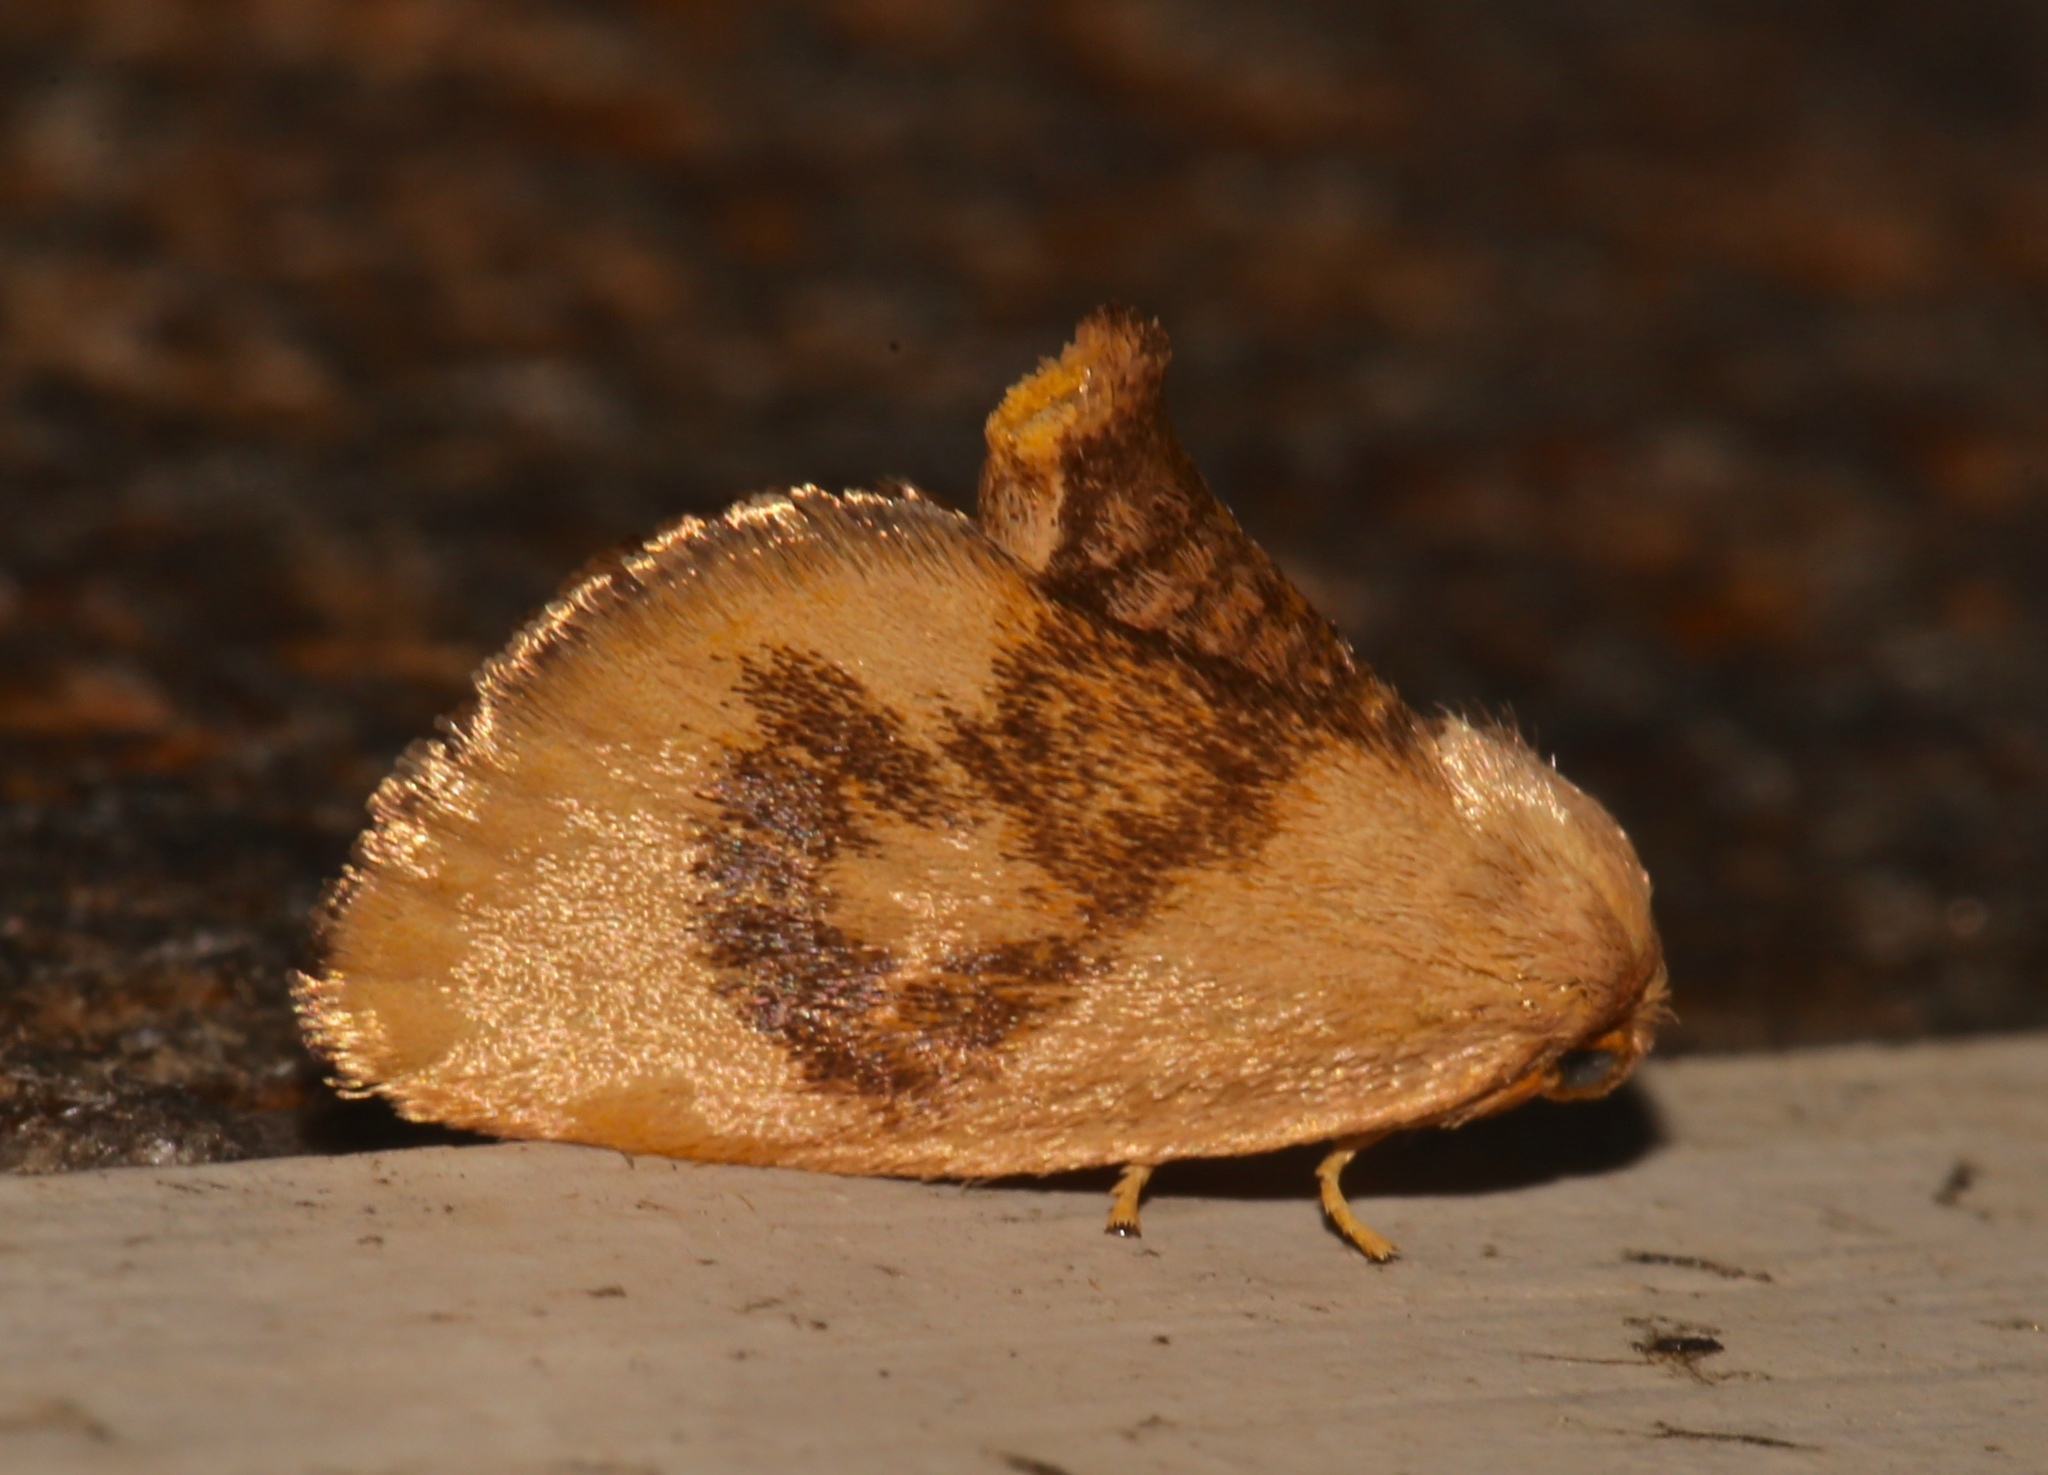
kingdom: Animalia
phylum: Arthropoda
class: Insecta
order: Lepidoptera
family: Limacodidae
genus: Tortricidia
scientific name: Tortricidia flexuosa
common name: Abbreviated button slug moth
